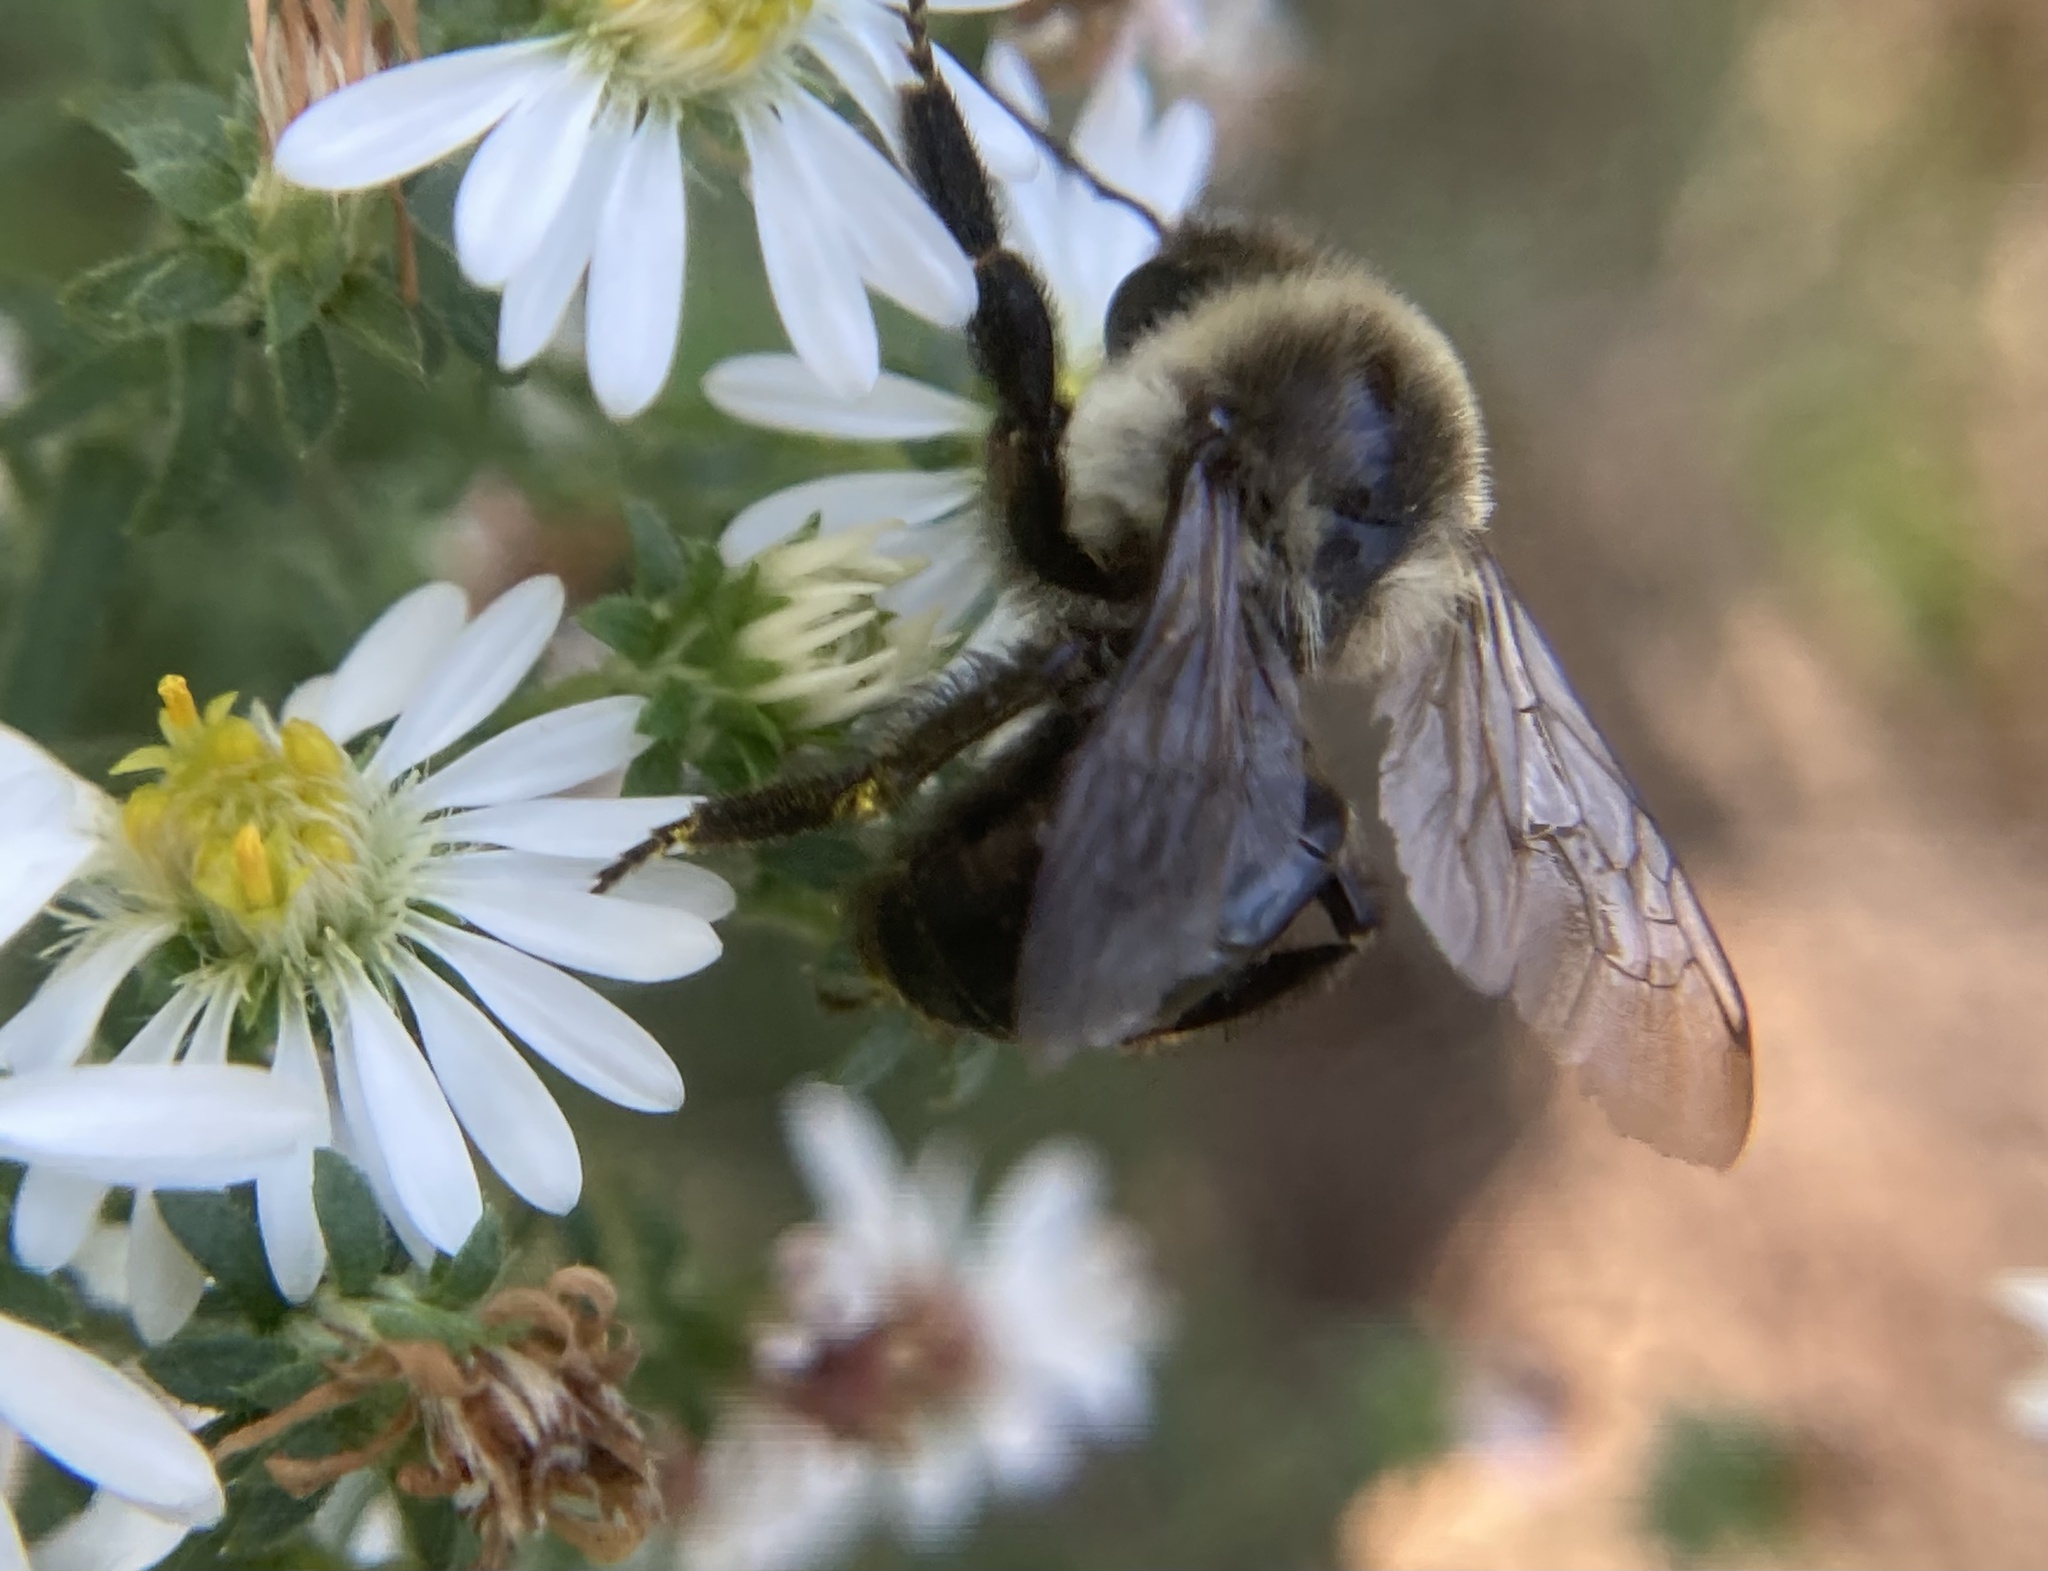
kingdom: Animalia
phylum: Arthropoda
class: Insecta
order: Hymenoptera
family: Apidae
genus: Bombus
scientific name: Bombus impatiens
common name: Common eastern bumble bee
